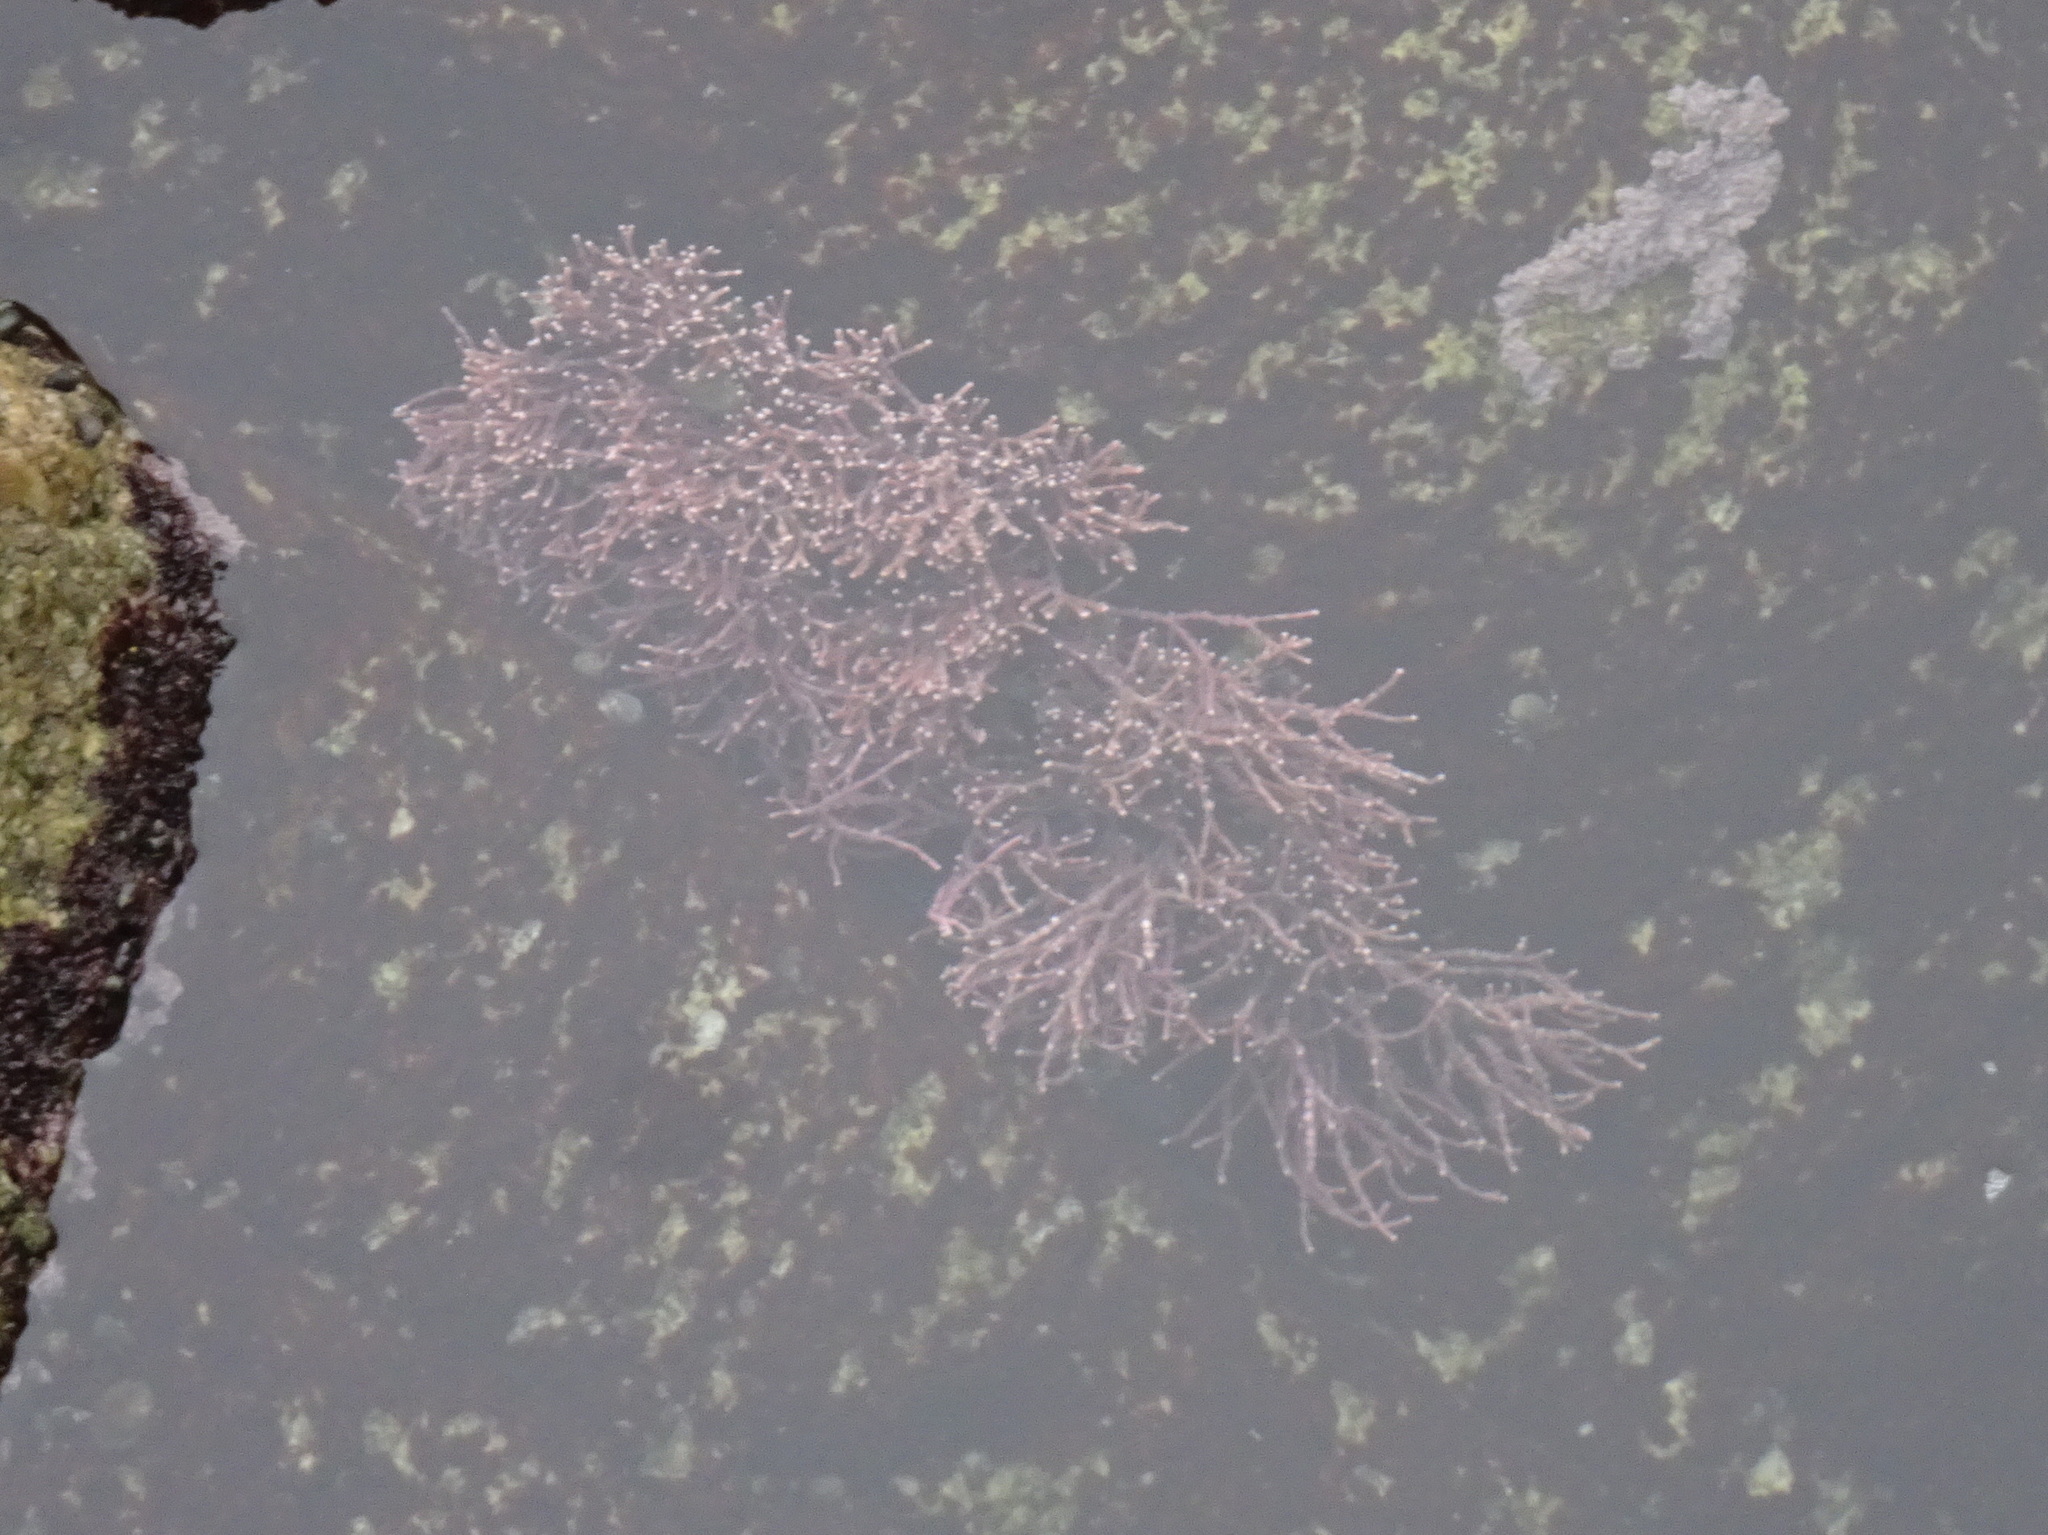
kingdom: Plantae
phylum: Rhodophyta
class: Florideophyceae
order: Corallinales
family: Corallinaceae
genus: Calliarthron
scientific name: Calliarthron tuberculosum
